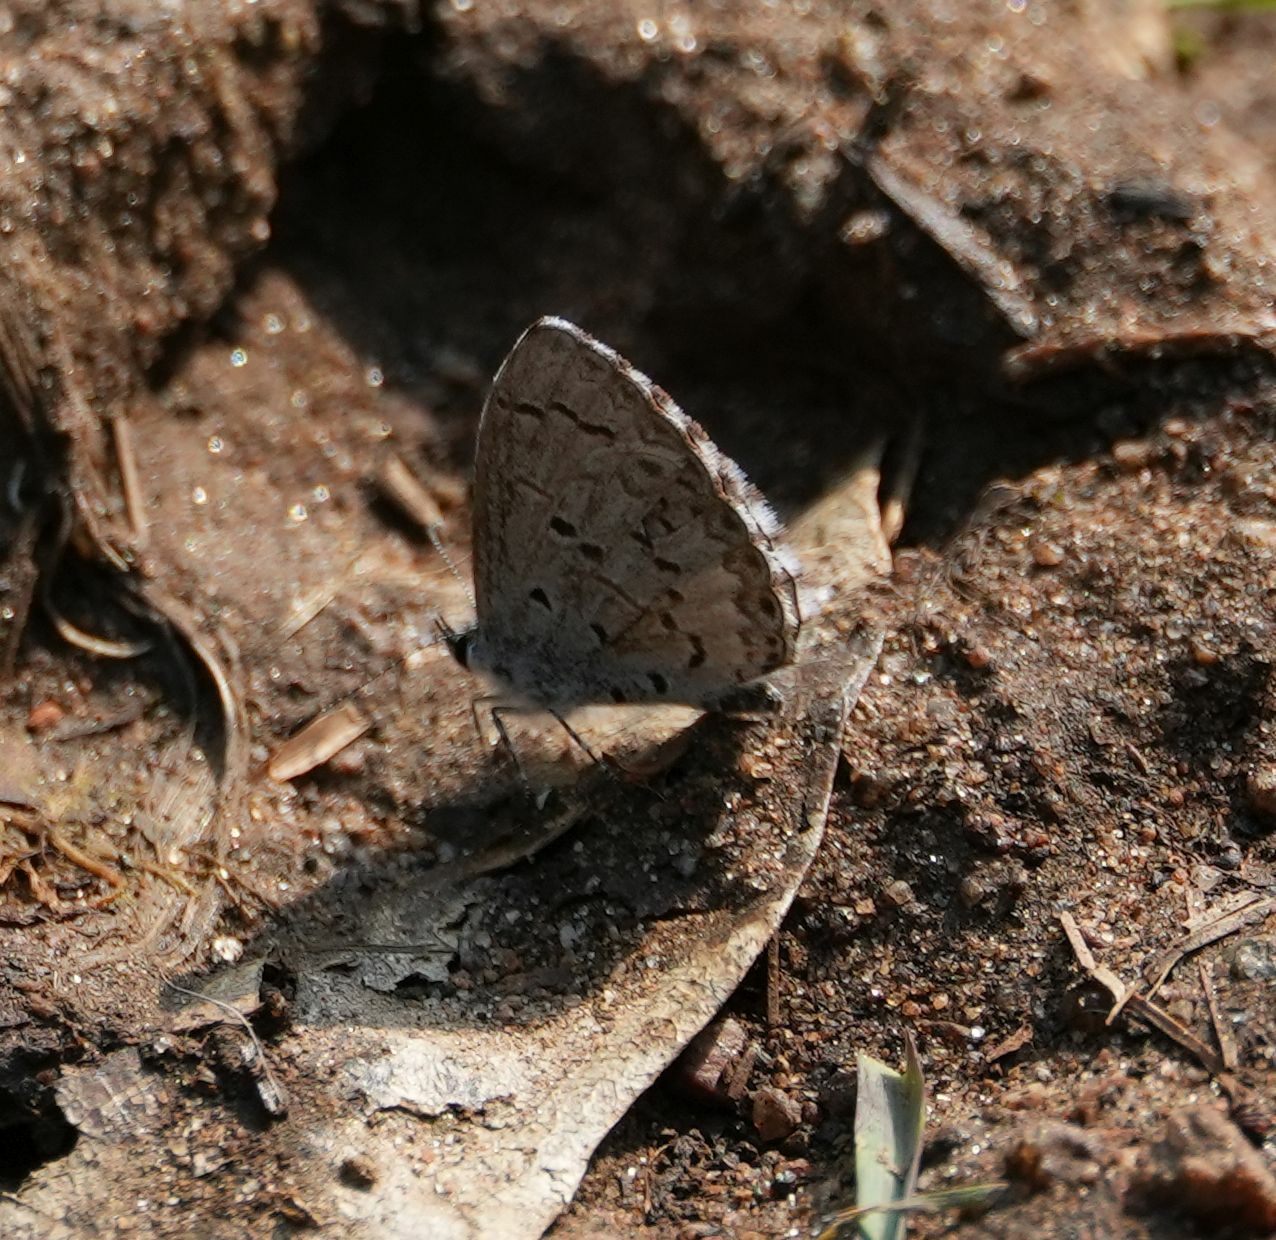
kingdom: Animalia
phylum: Arthropoda
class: Insecta
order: Lepidoptera
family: Lycaenidae
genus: Celastrina
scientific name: Celastrina lucia
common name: Lucia azure
